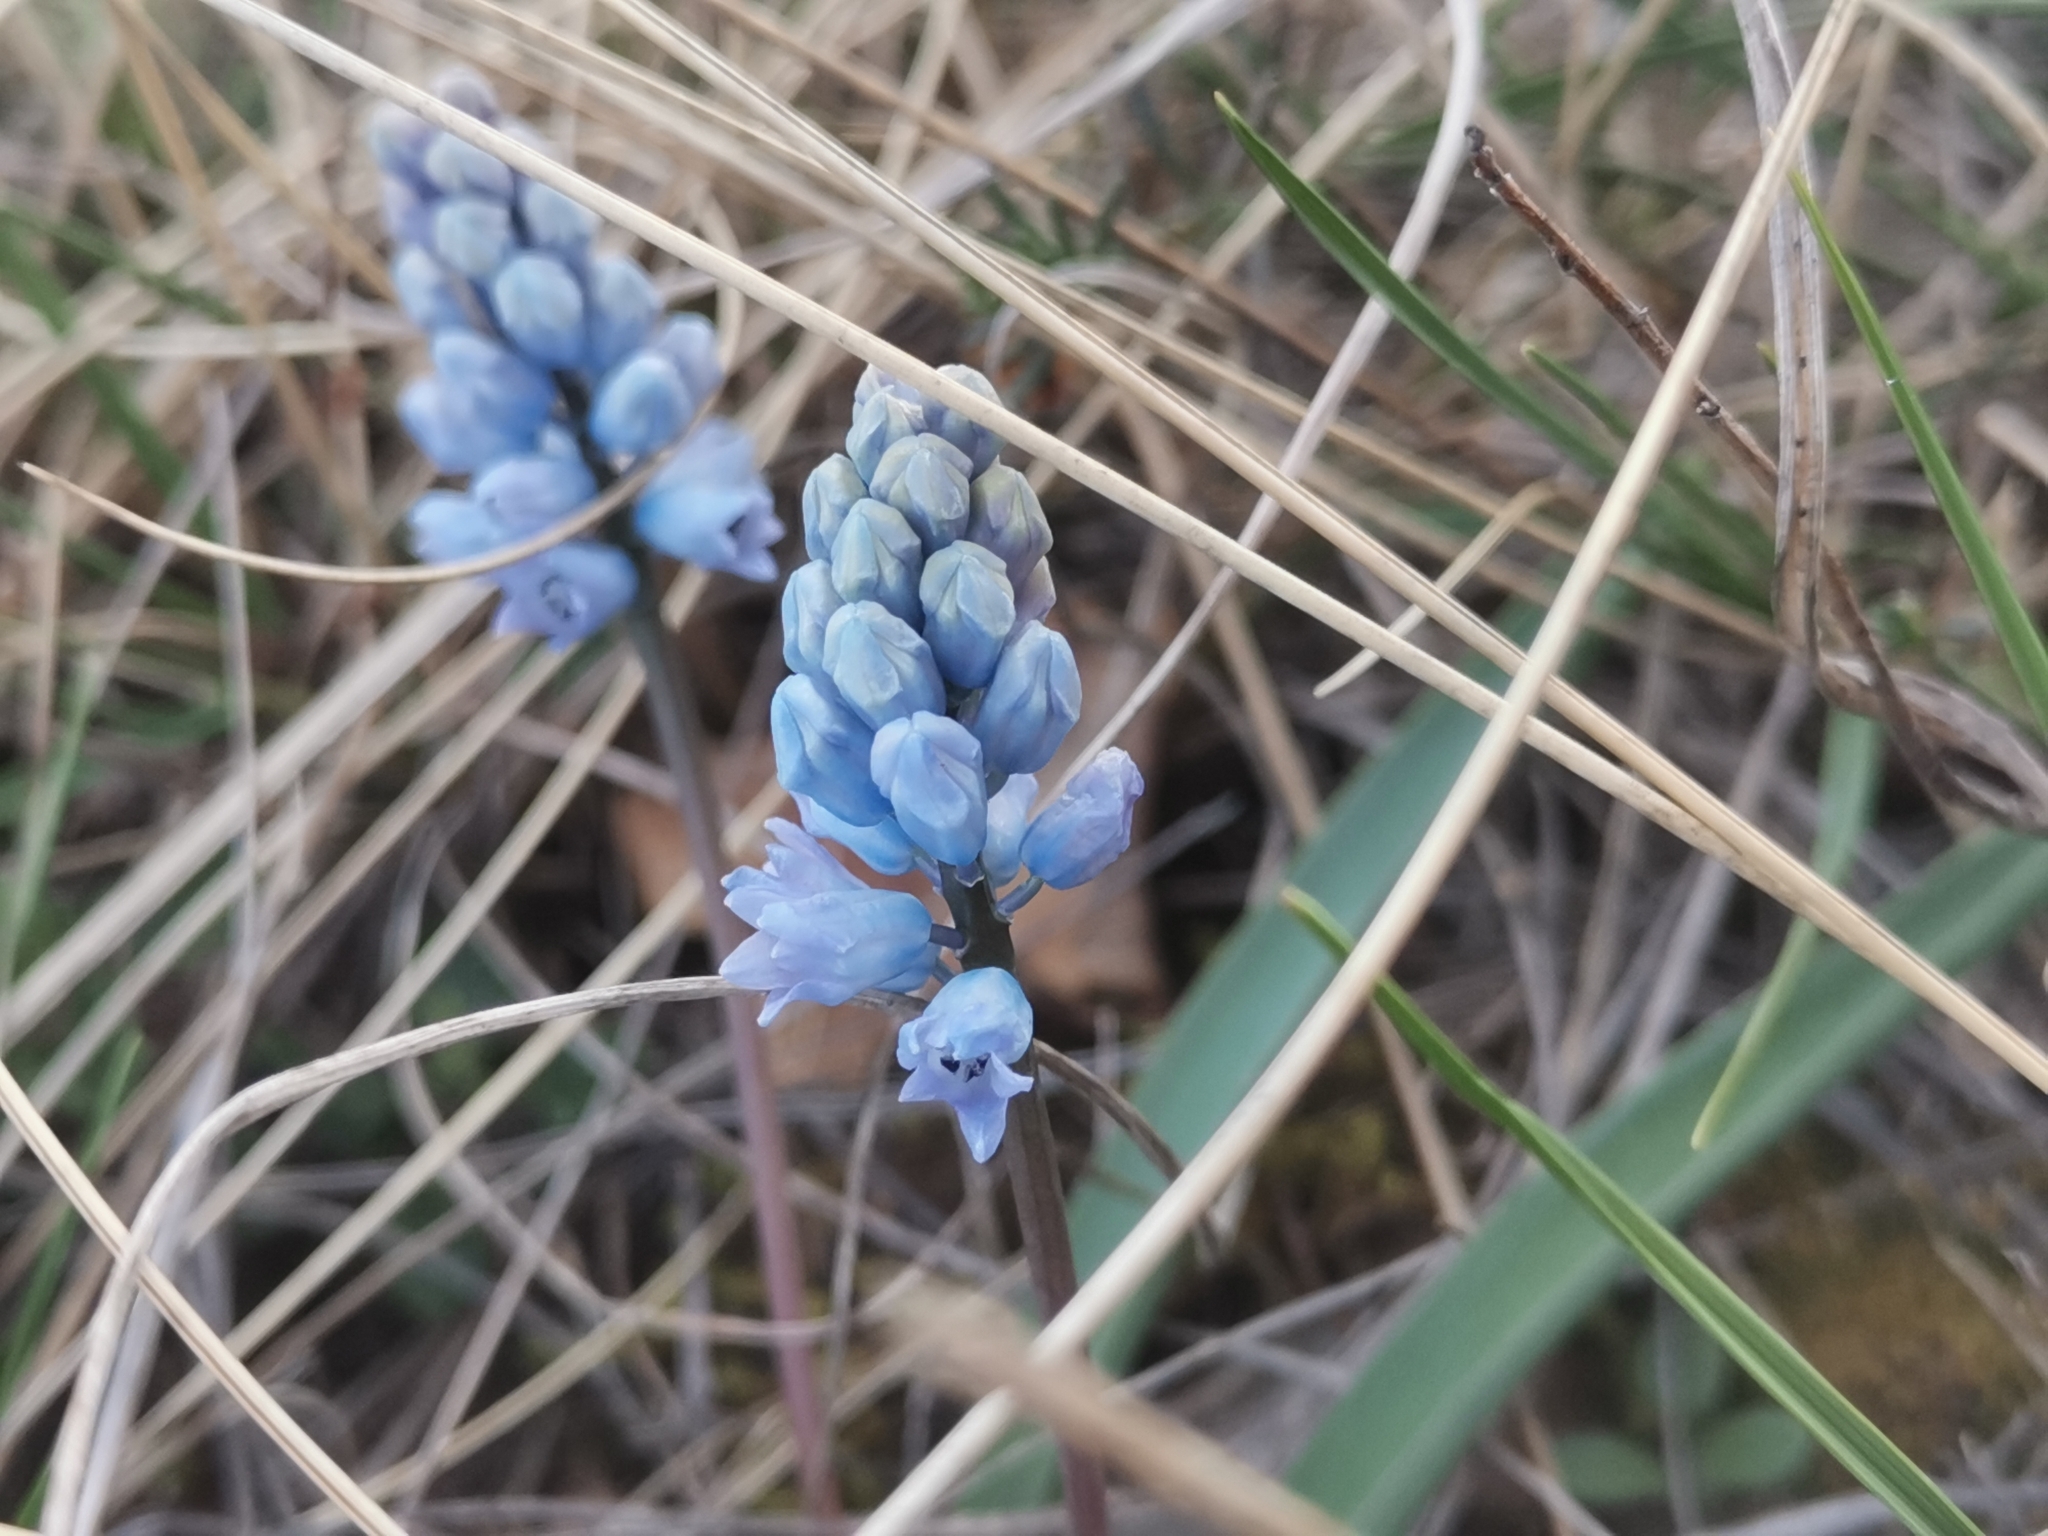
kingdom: Plantae
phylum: Tracheophyta
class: Liliopsida
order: Asparagales
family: Asparagaceae
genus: Hyacinthella
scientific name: Hyacinthella dalmatica
